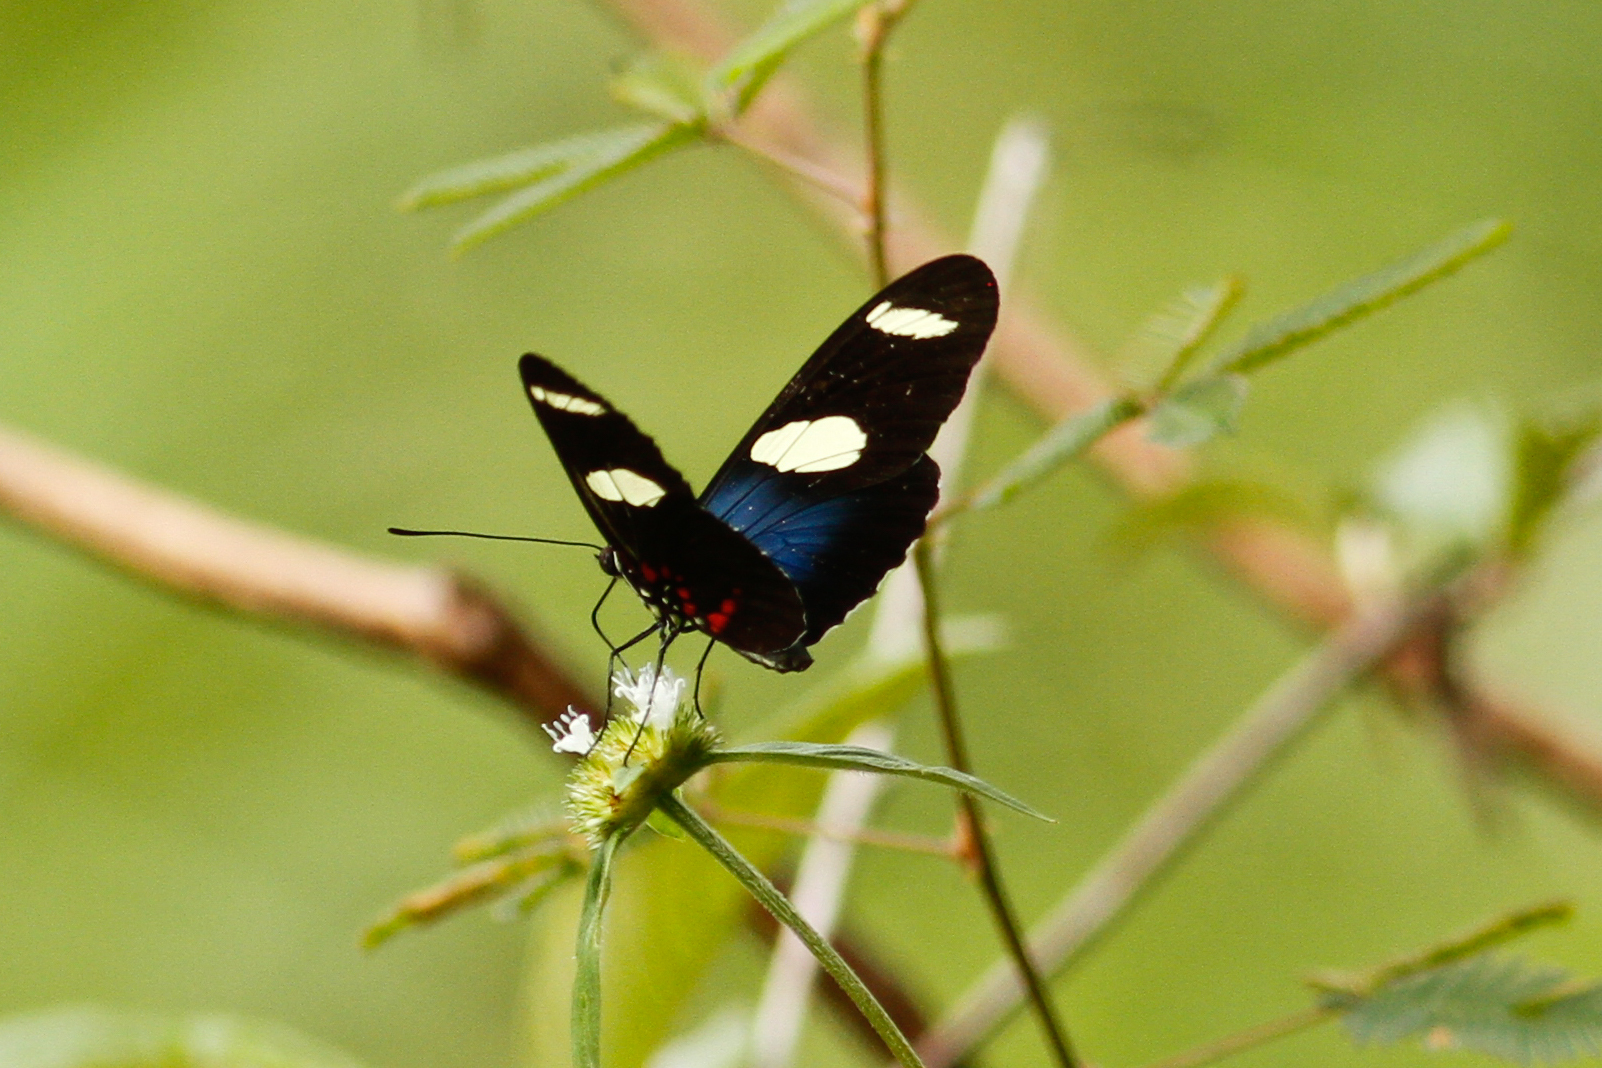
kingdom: Animalia
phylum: Arthropoda
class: Insecta
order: Lepidoptera
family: Nymphalidae
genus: Heliconius
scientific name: Heliconius sara
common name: Sara longwing
